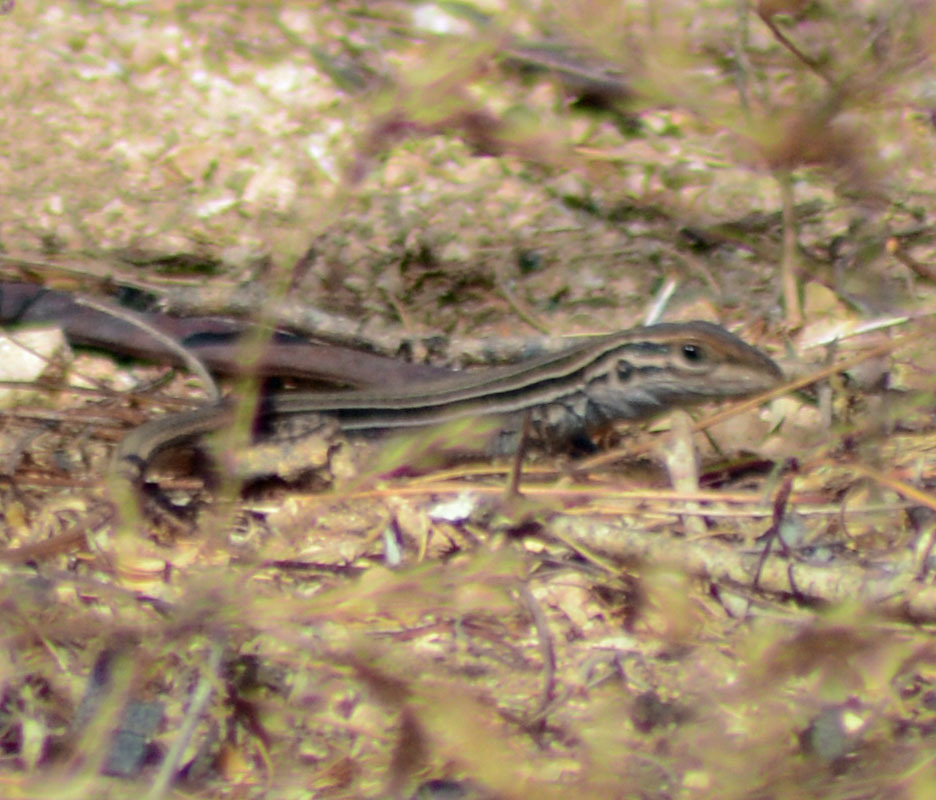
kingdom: Animalia
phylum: Chordata
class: Squamata
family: Teiidae
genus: Aspidoscelis
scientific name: Aspidoscelis costatus
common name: Western mexico whiptail
